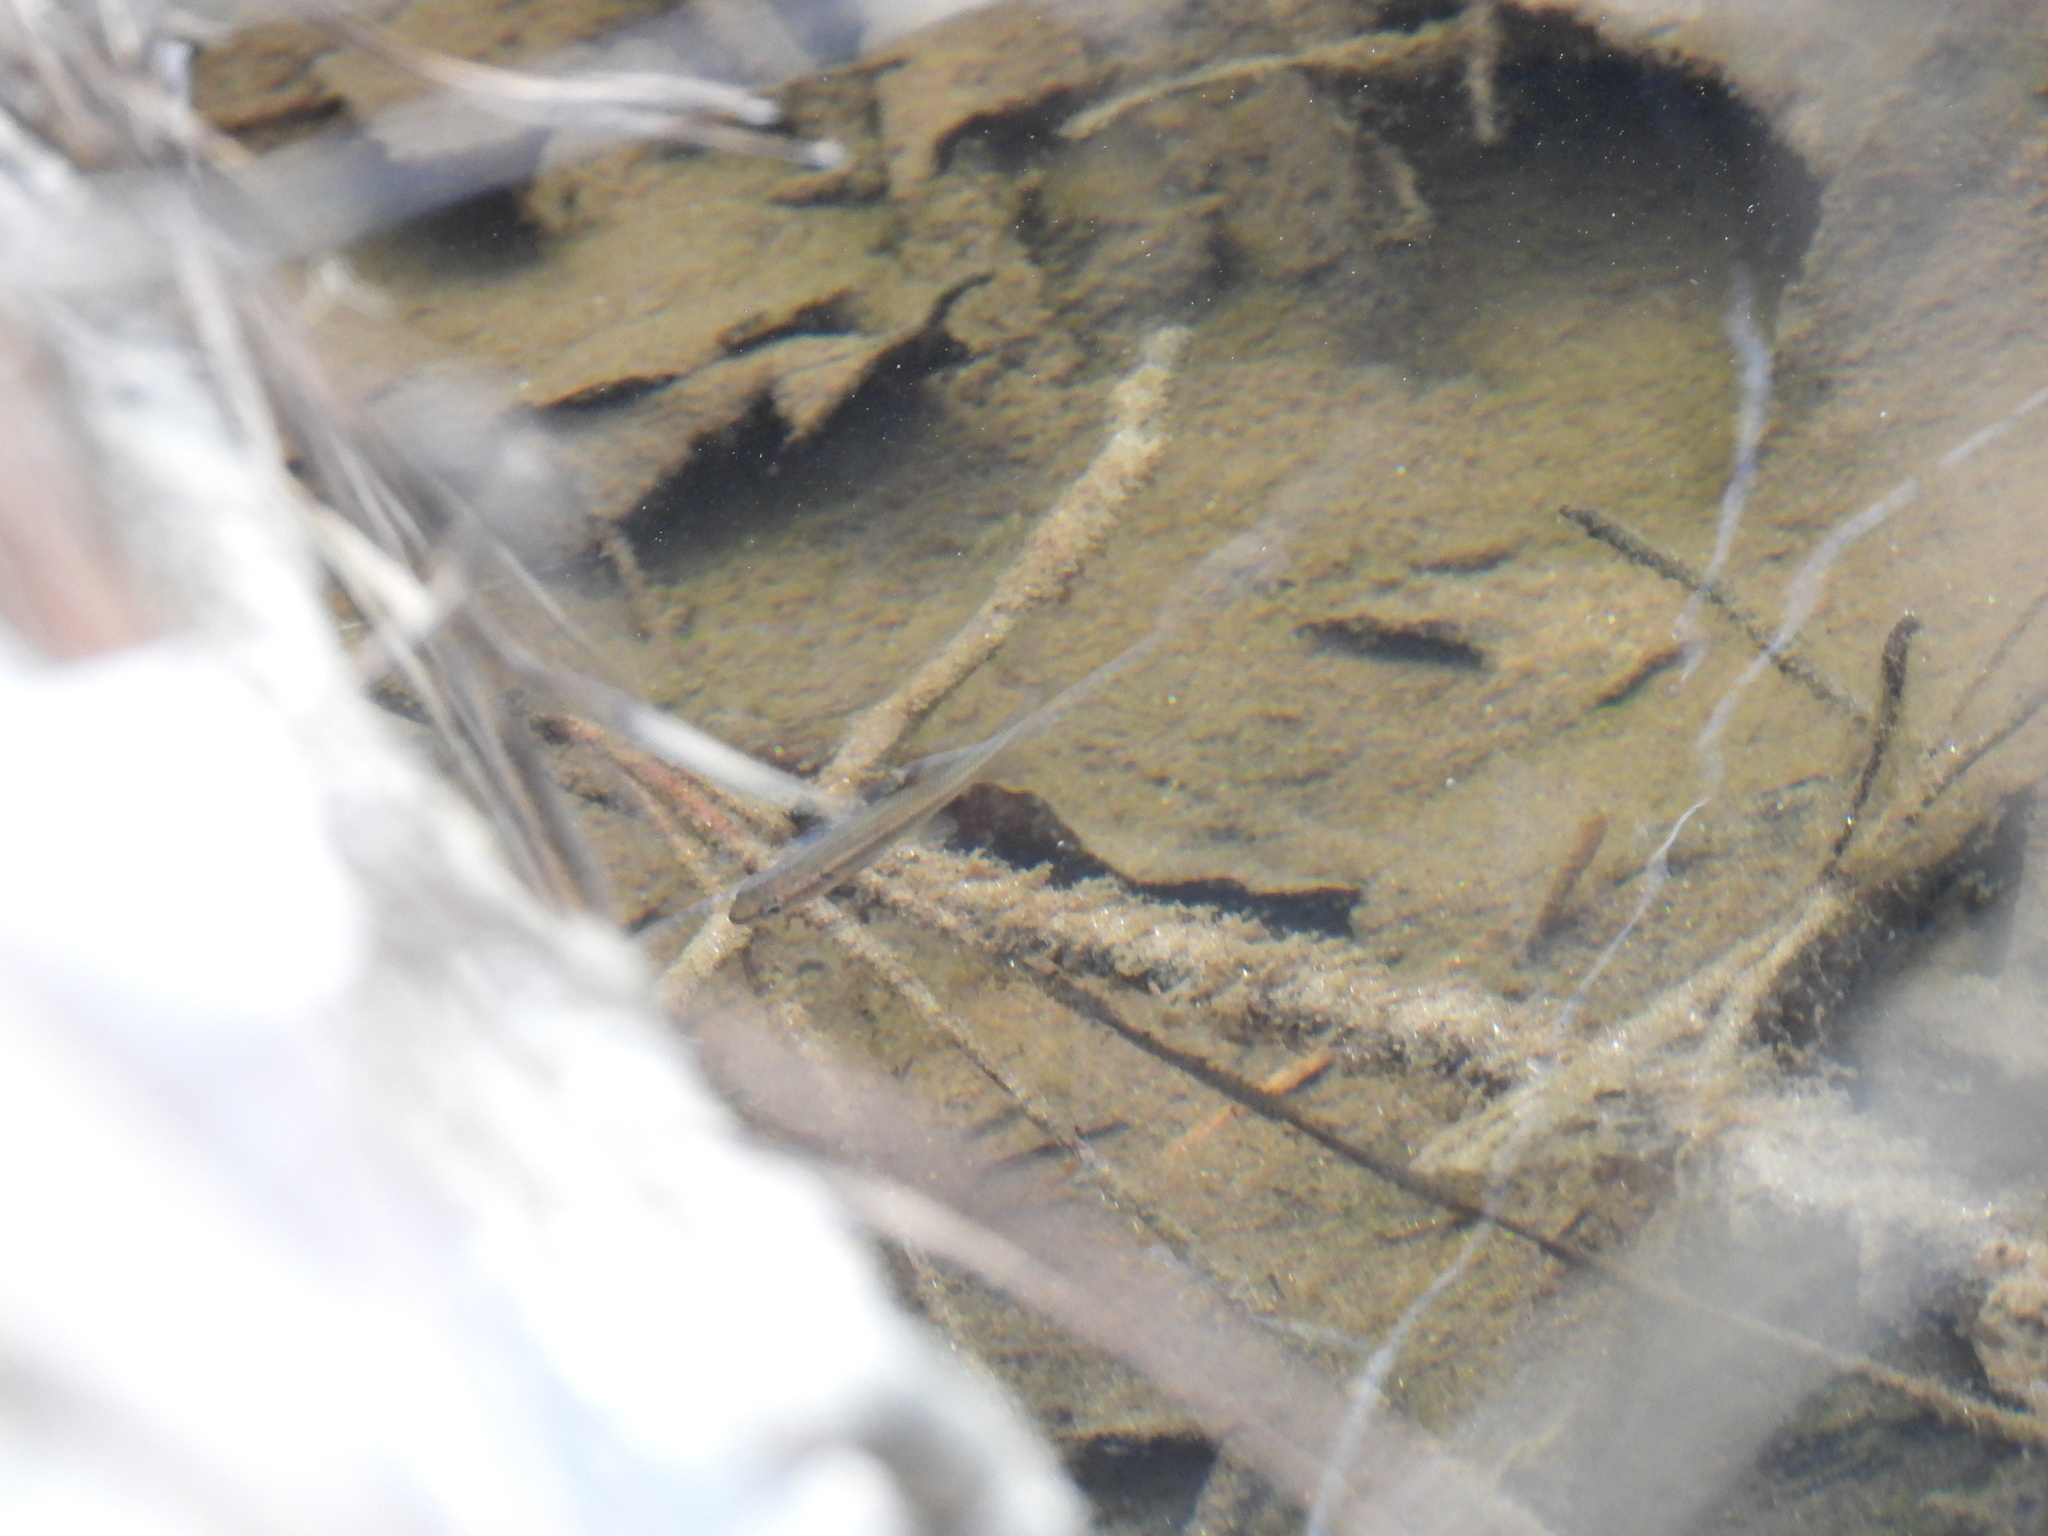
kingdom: Animalia
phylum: Chordata
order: Cyprinodontiformes
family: Poeciliidae
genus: Gambusia
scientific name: Gambusia holbrooki
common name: Eastern mosquitofish
